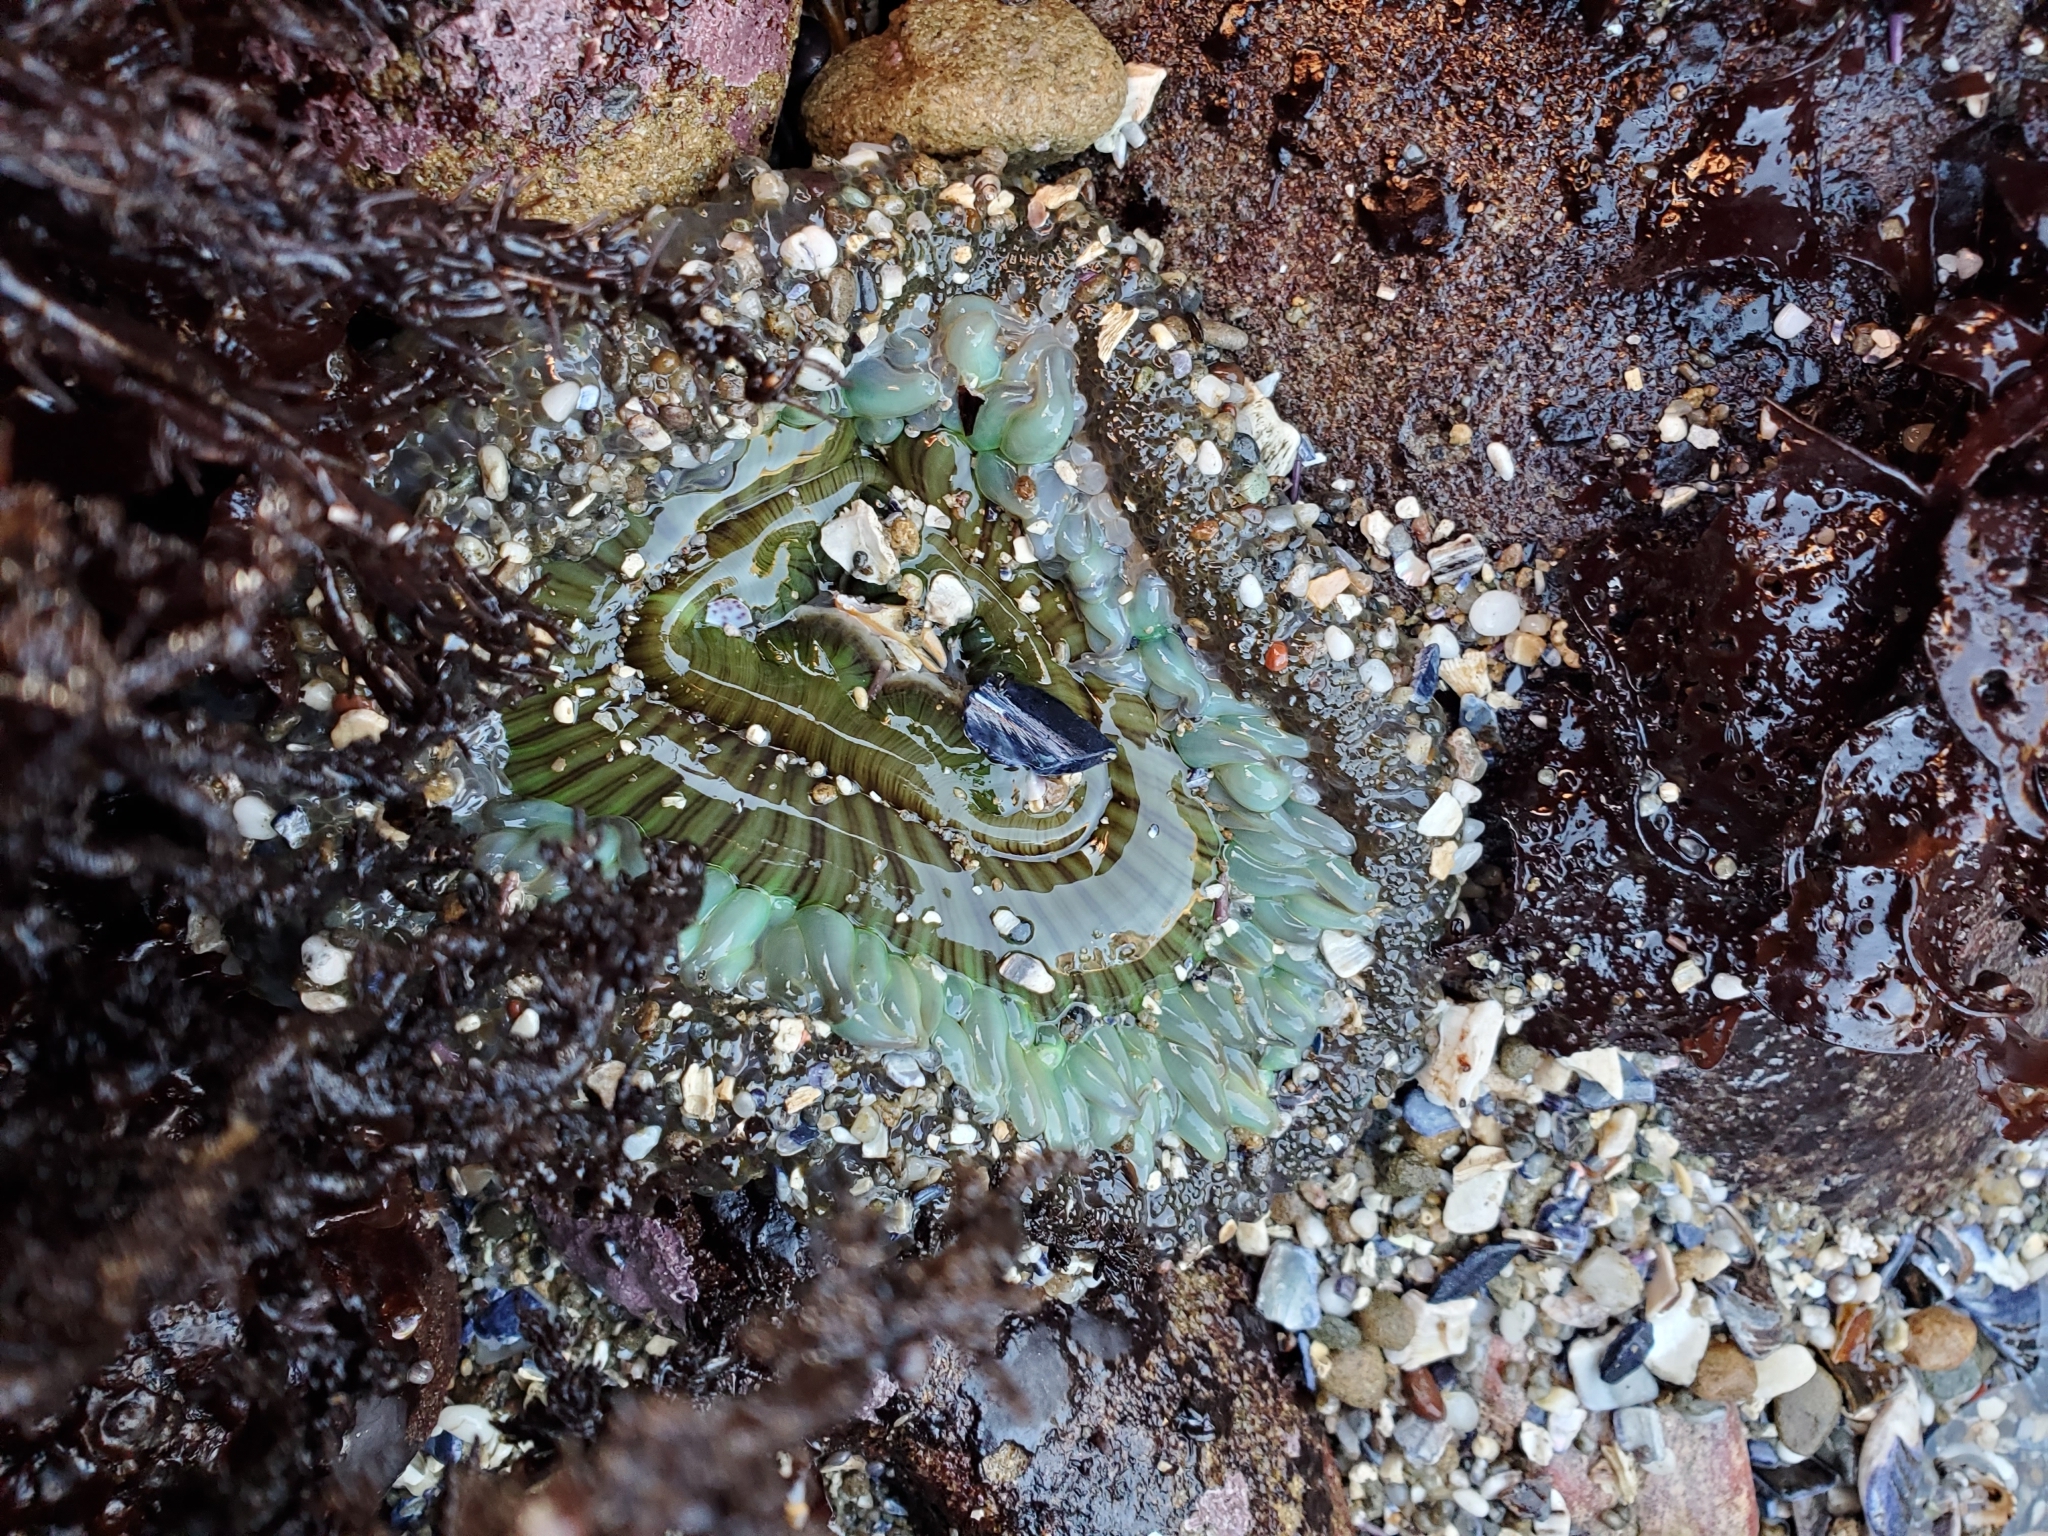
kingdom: Animalia
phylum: Cnidaria
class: Anthozoa
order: Actiniaria
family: Actiniidae
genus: Anthopleura
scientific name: Anthopleura sola
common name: Sun anemone
